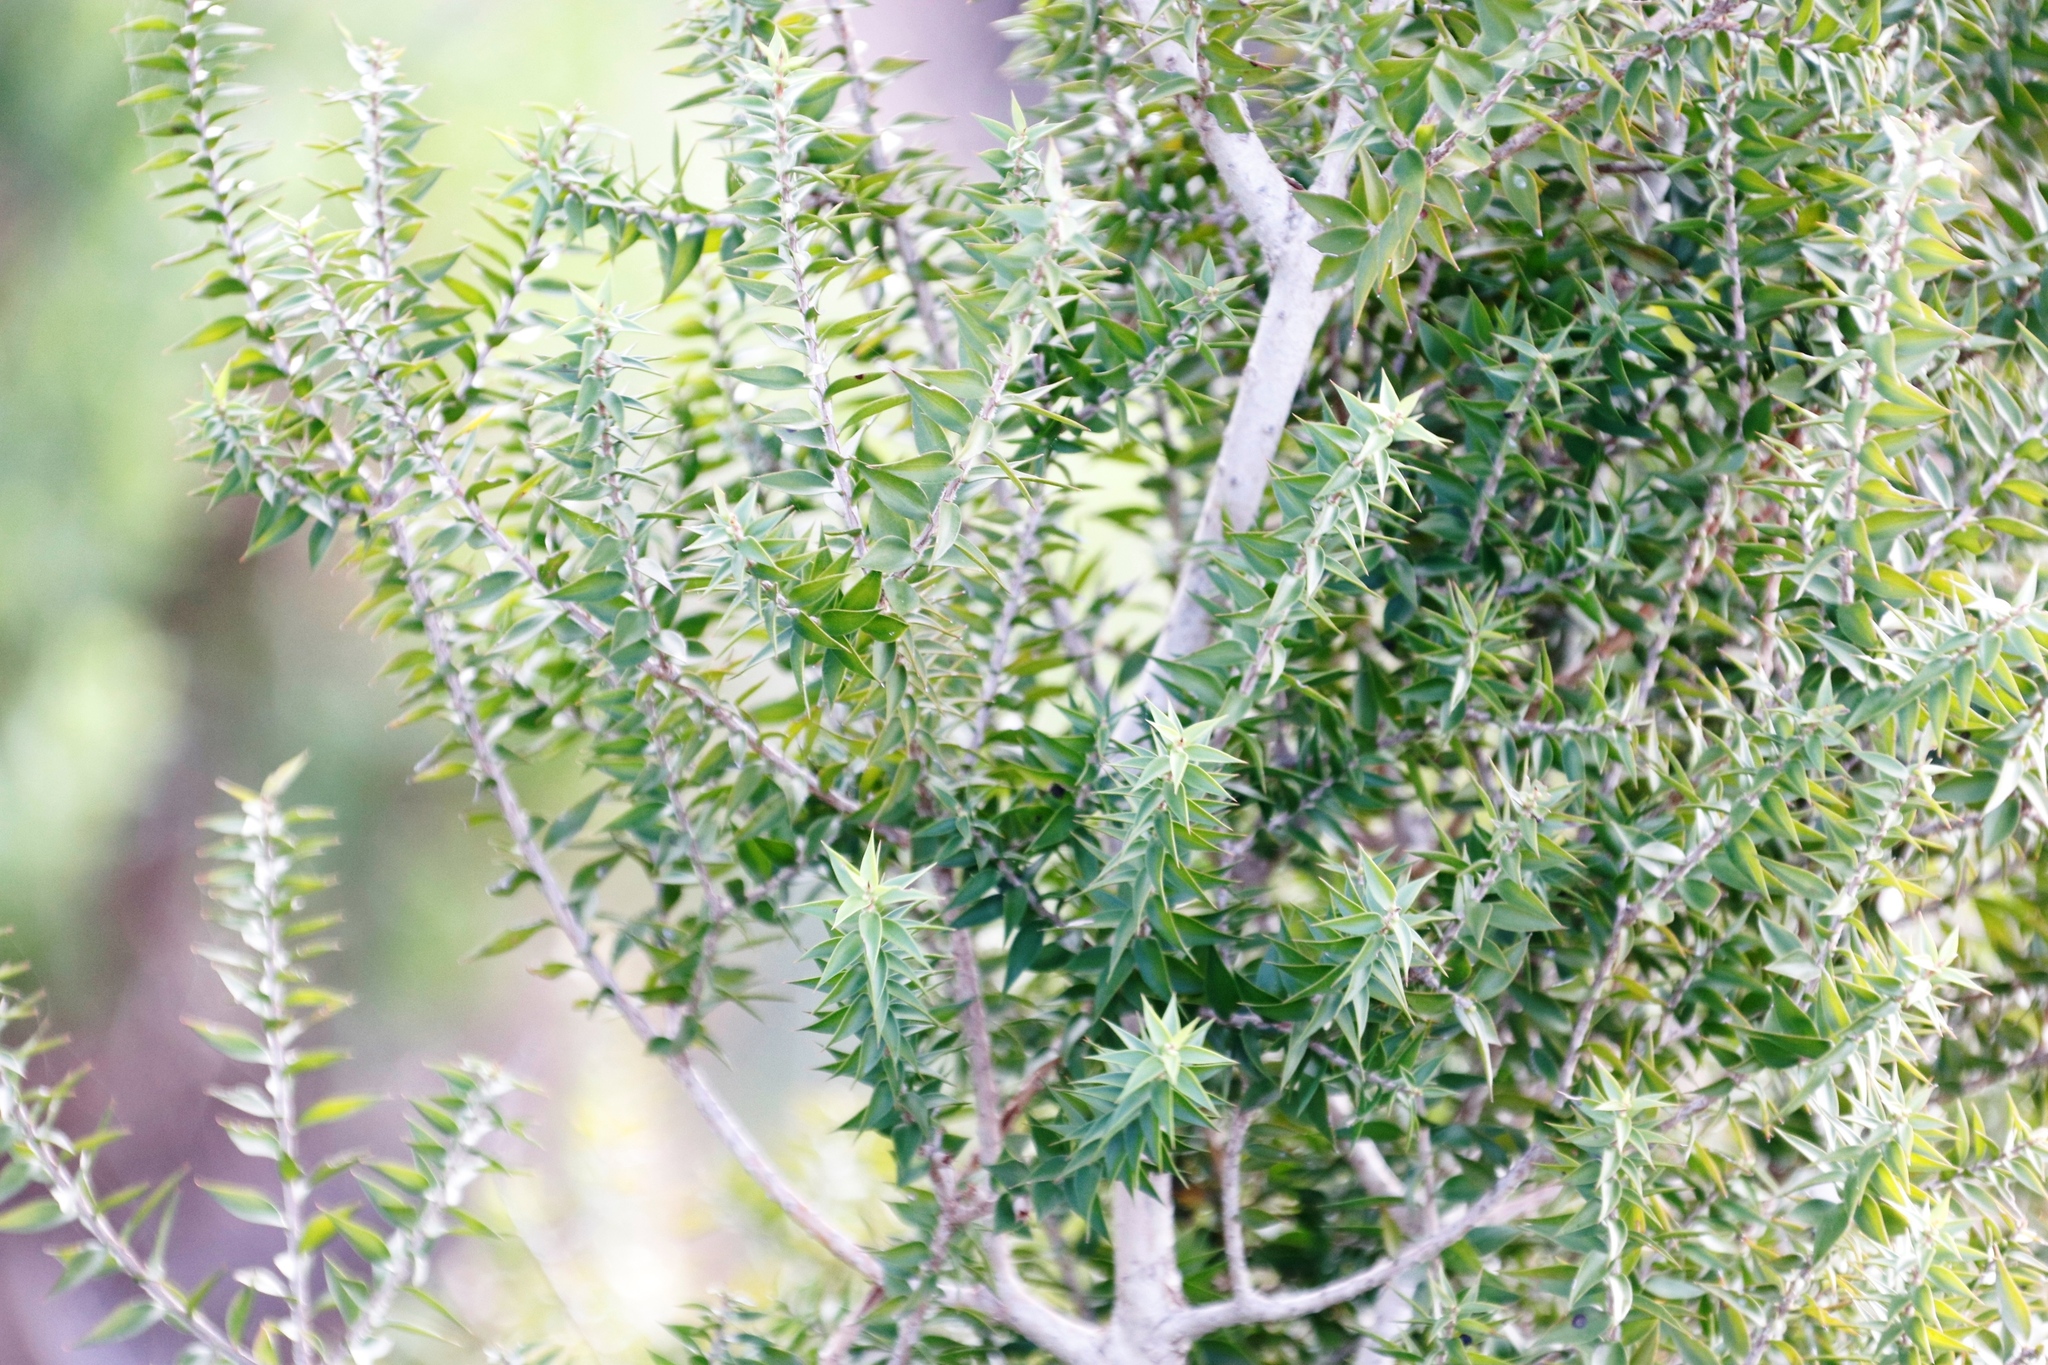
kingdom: Plantae
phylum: Tracheophyta
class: Magnoliopsida
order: Myrtales
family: Myrtaceae
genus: Melaleuca
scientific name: Melaleuca styphelioides
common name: Prickly paperbark
